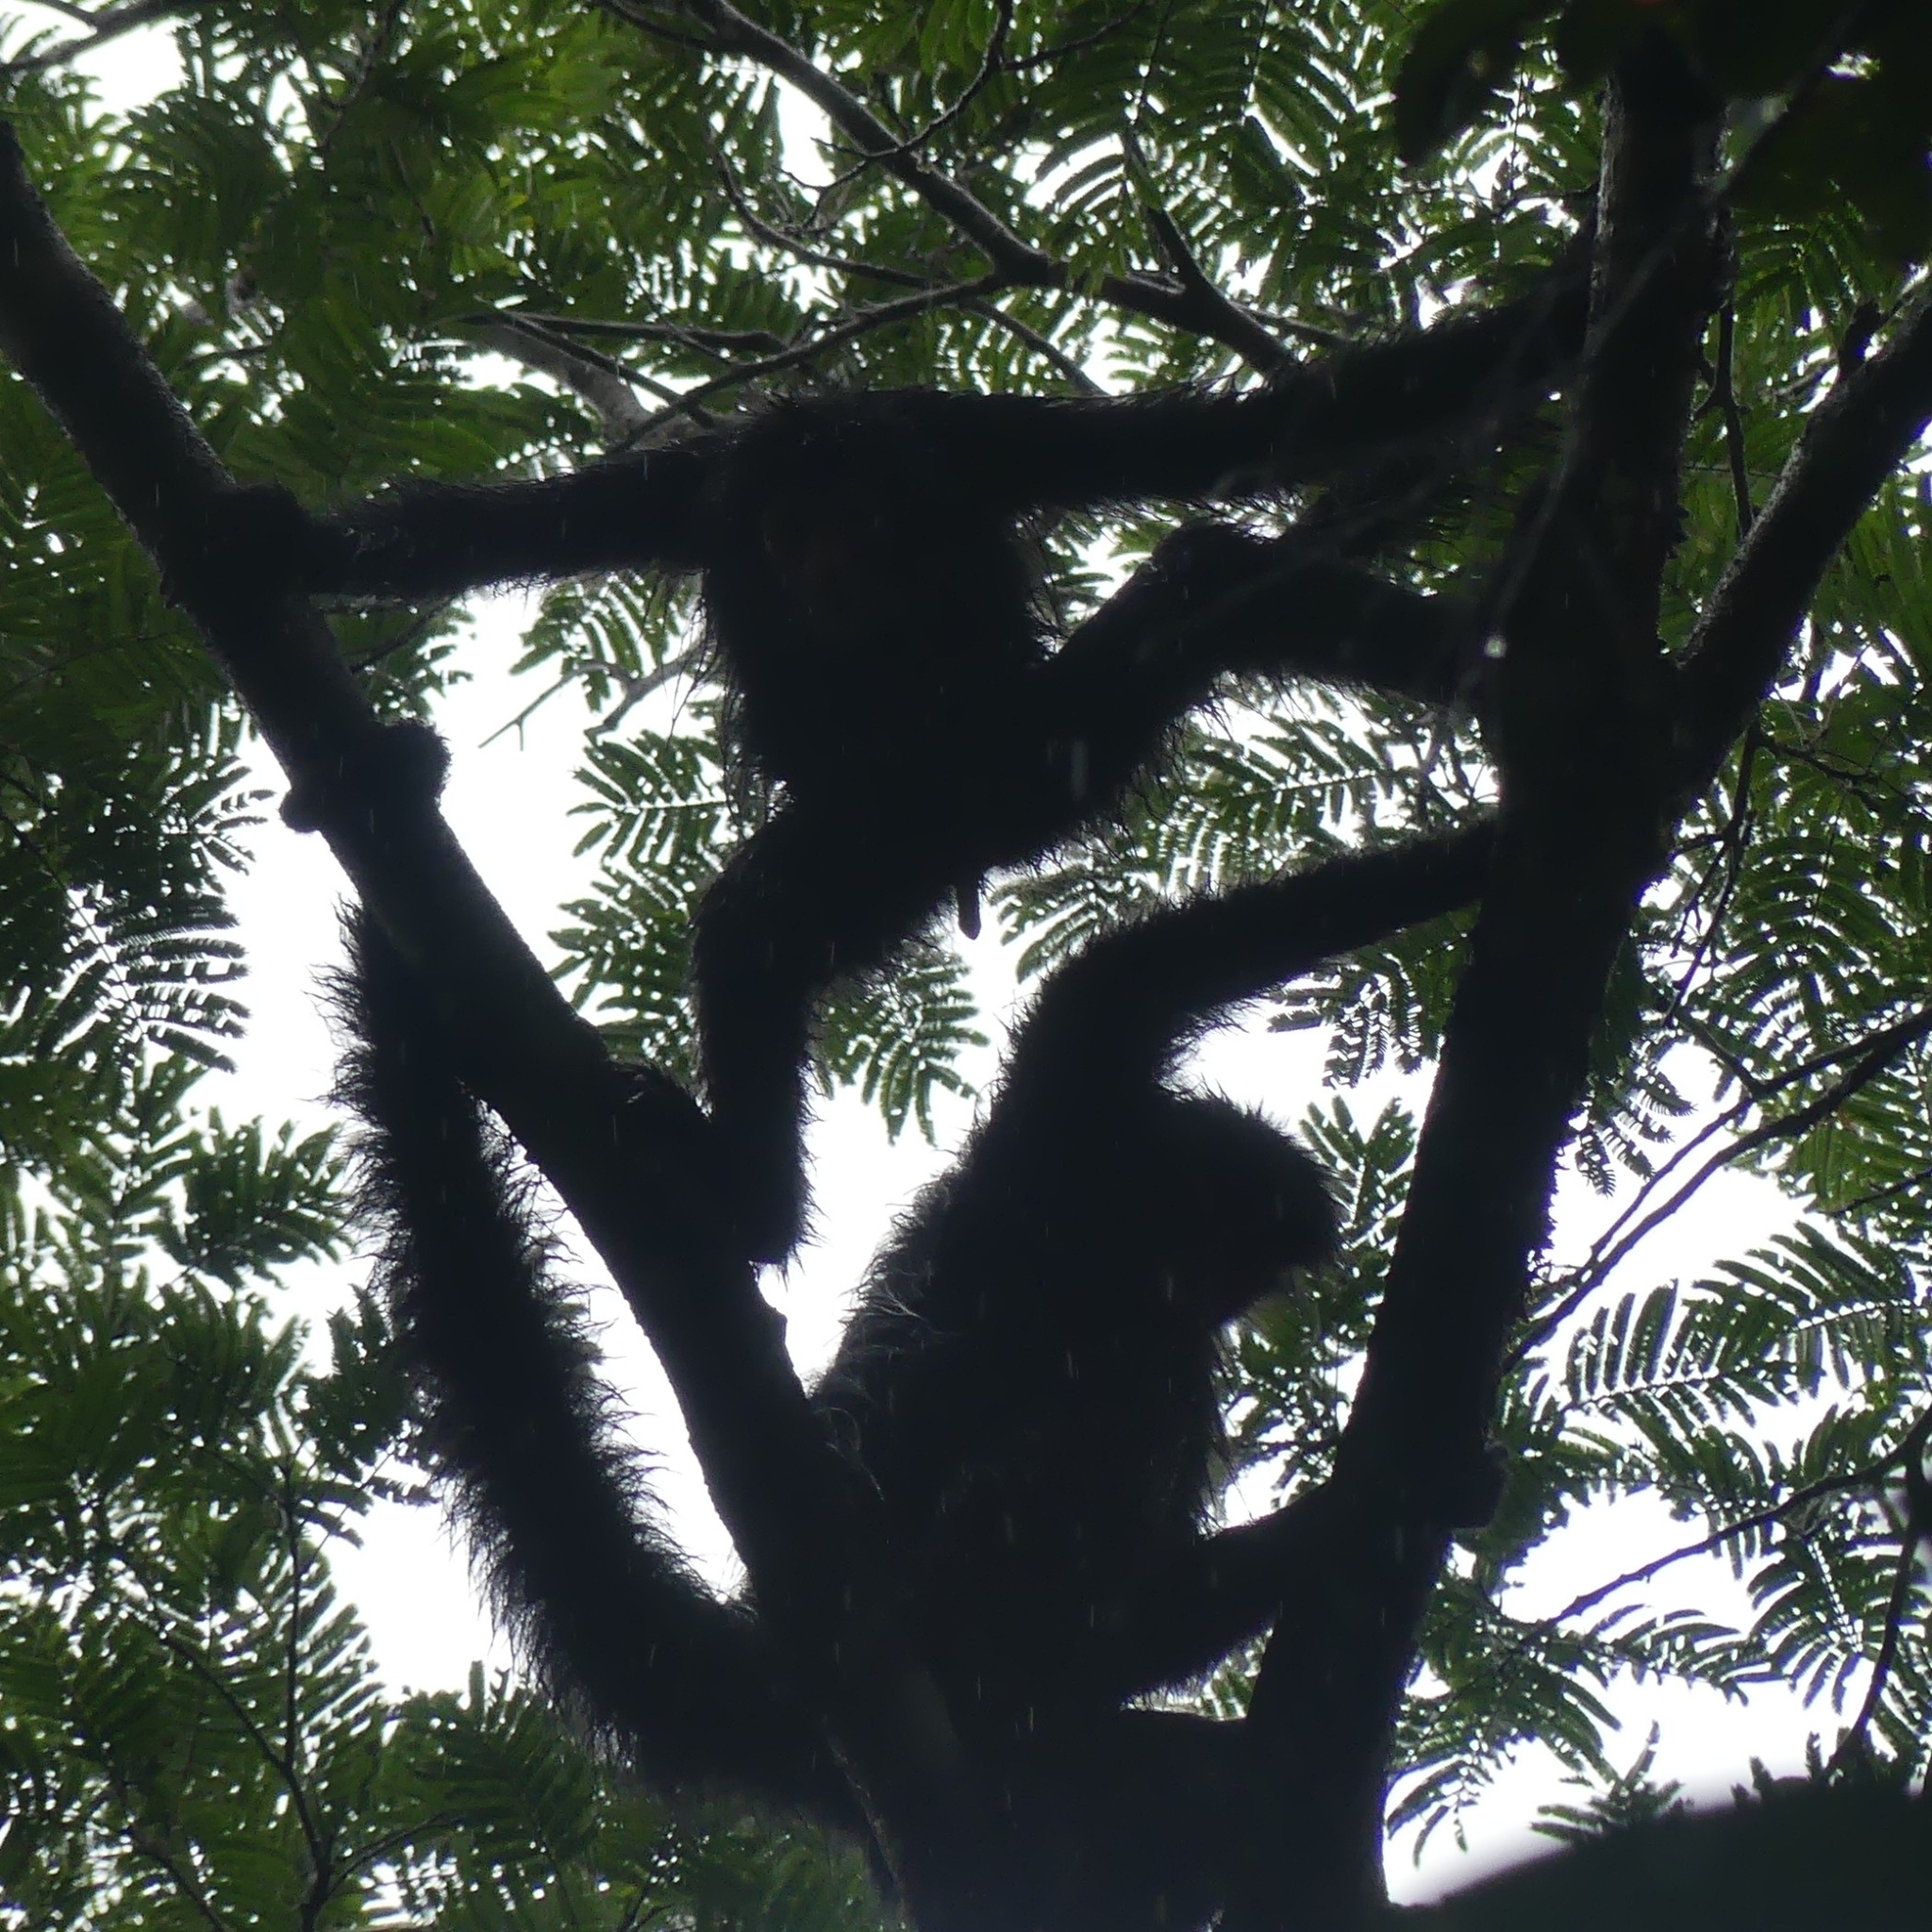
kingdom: Animalia
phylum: Chordata
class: Mammalia
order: Primates
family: Atelidae
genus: Ateles
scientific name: Ateles paniscus
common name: Red-faced spider monkey
